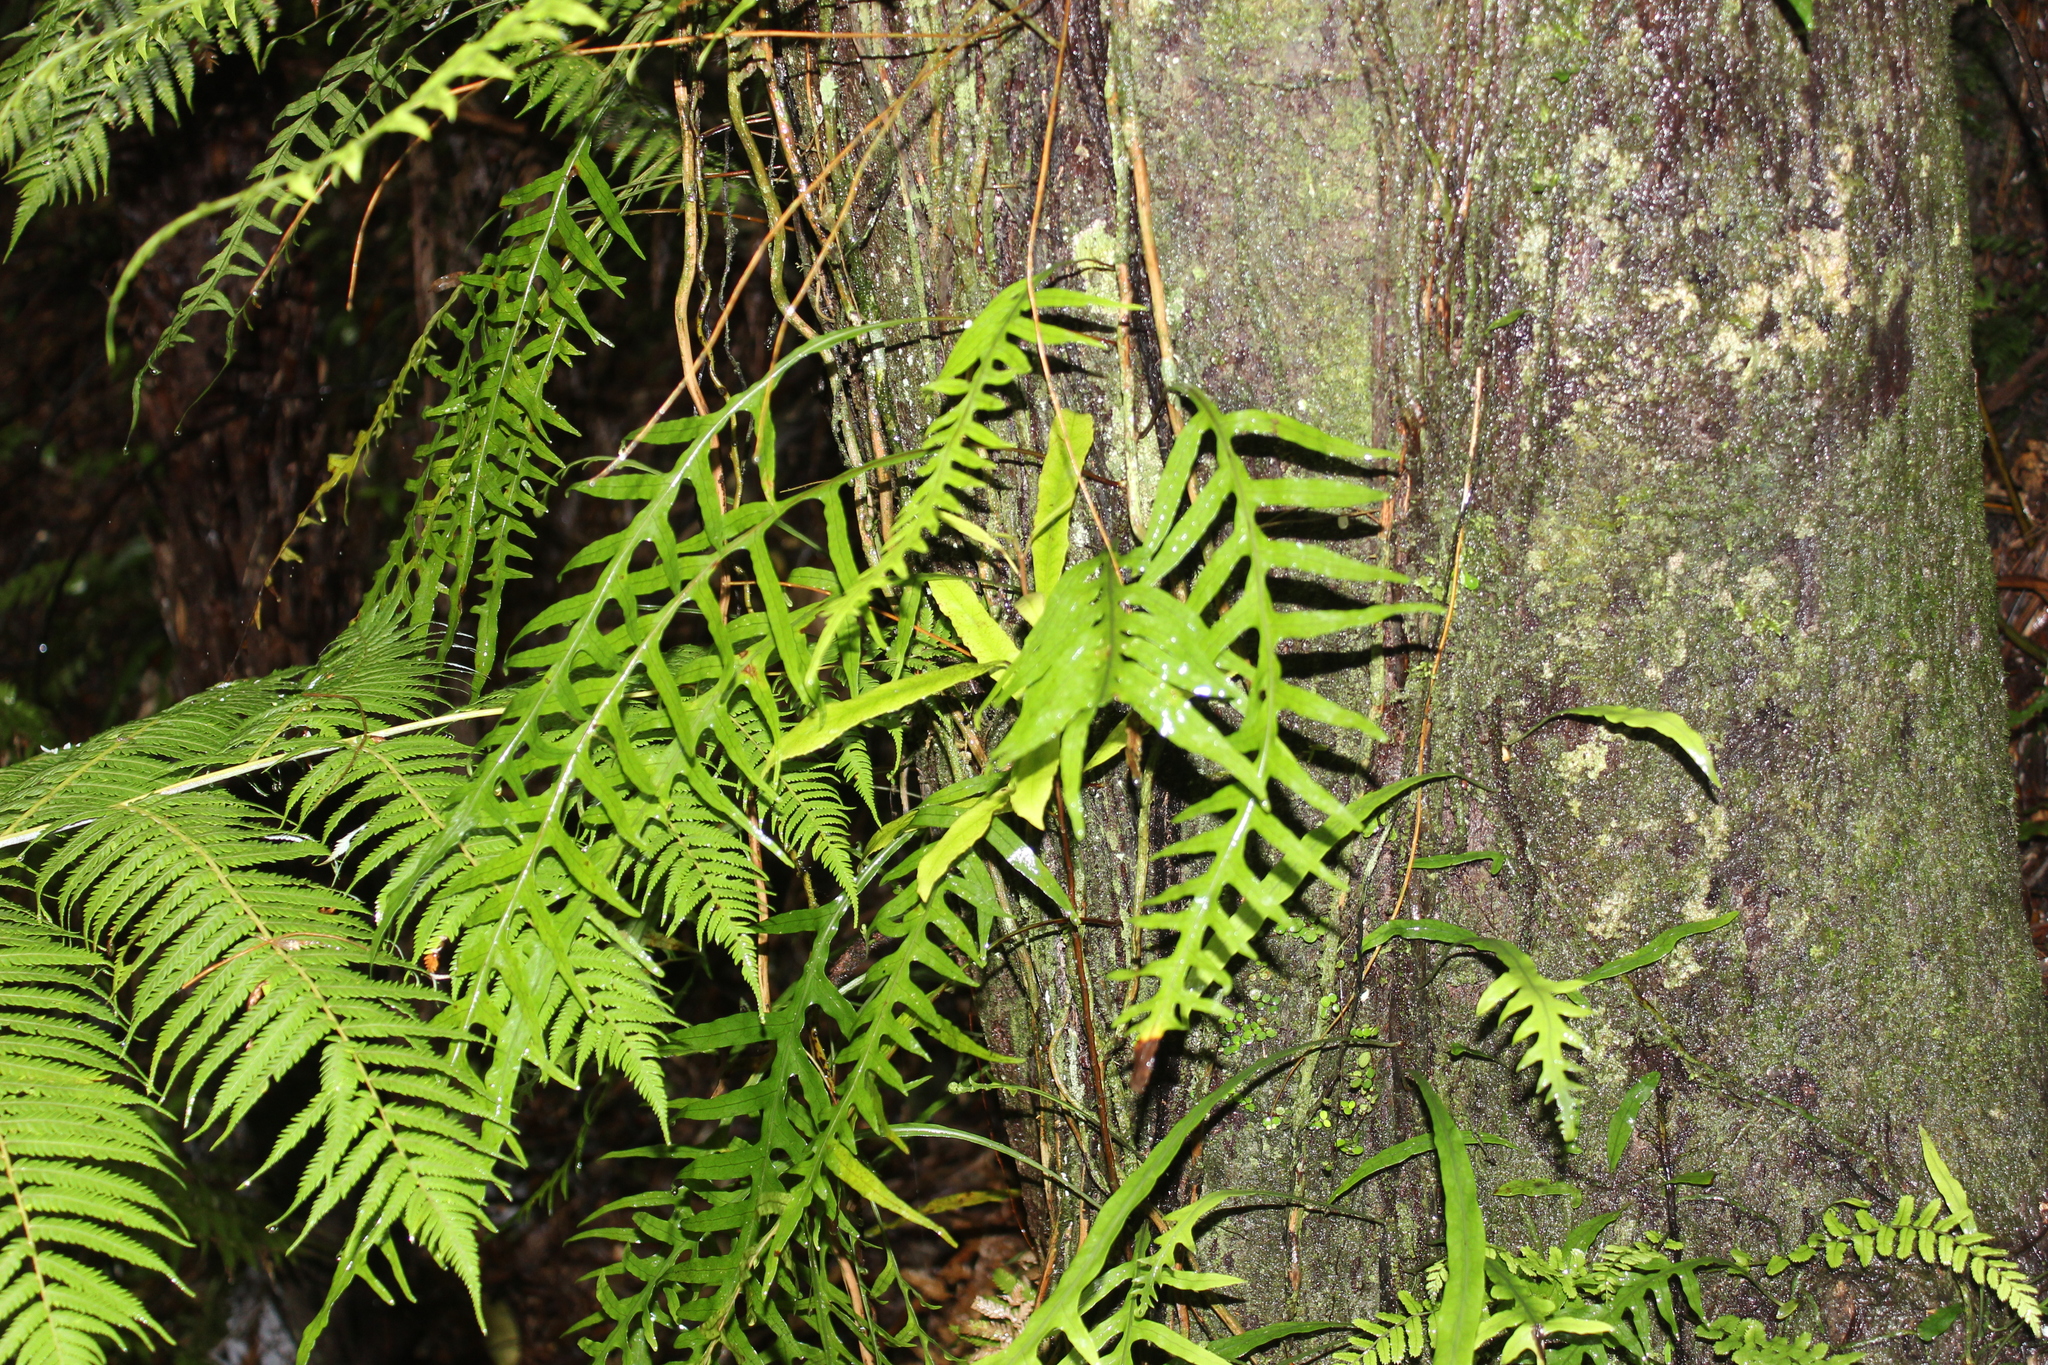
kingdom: Plantae
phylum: Tracheophyta
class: Polypodiopsida
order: Polypodiales
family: Polypodiaceae
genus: Lecanopteris
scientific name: Lecanopteris scandens
